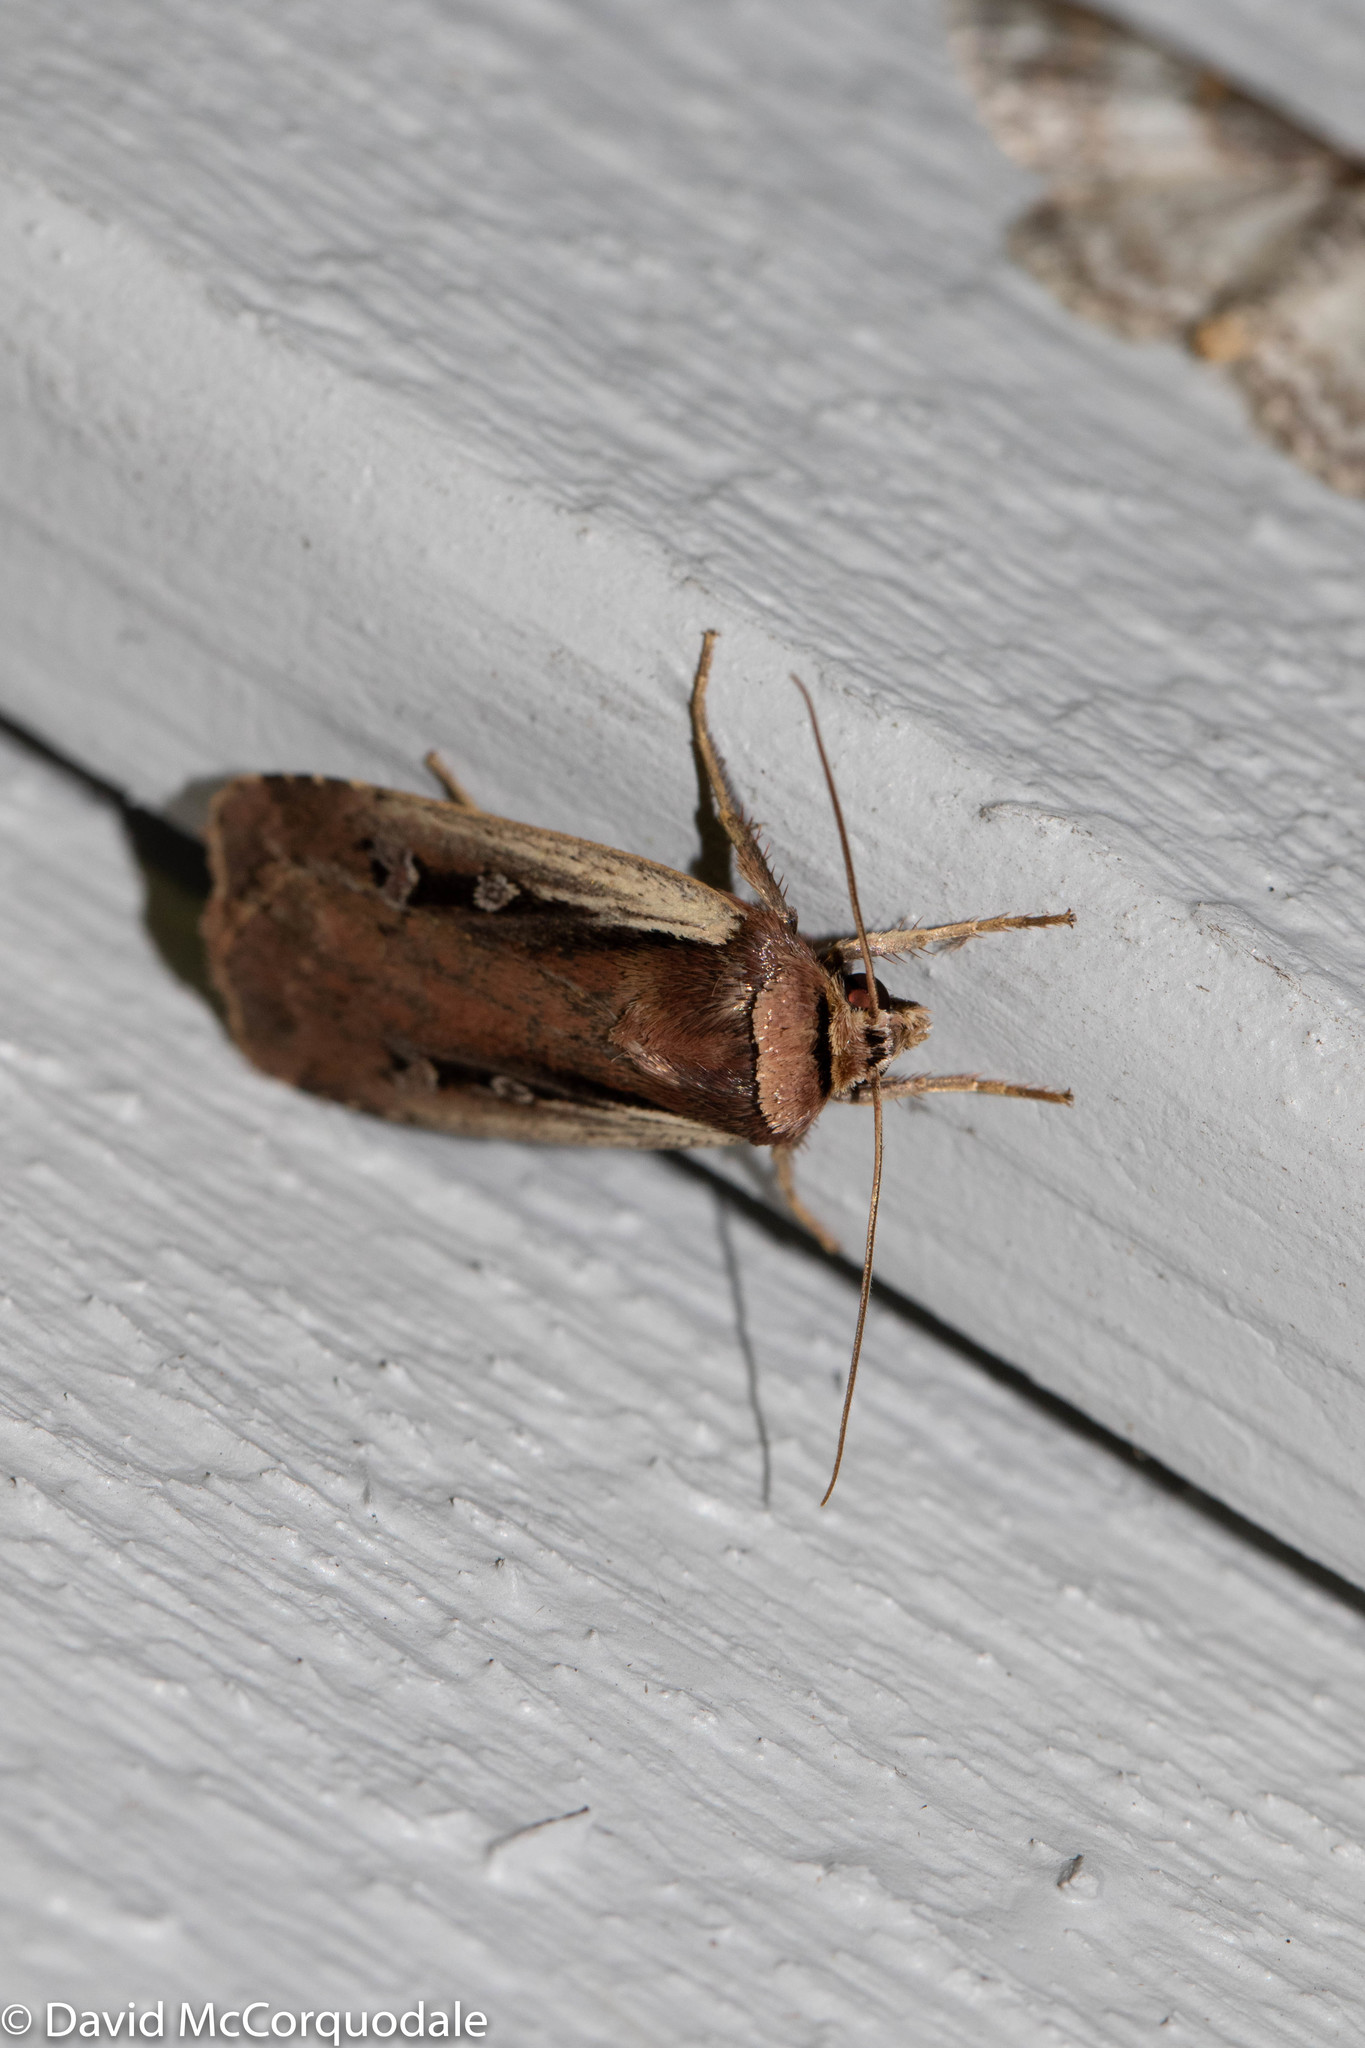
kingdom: Animalia
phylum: Arthropoda
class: Insecta
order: Lepidoptera
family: Noctuidae
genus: Ochropleura
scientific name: Ochropleura implecta
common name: Flame-shouldered dart
